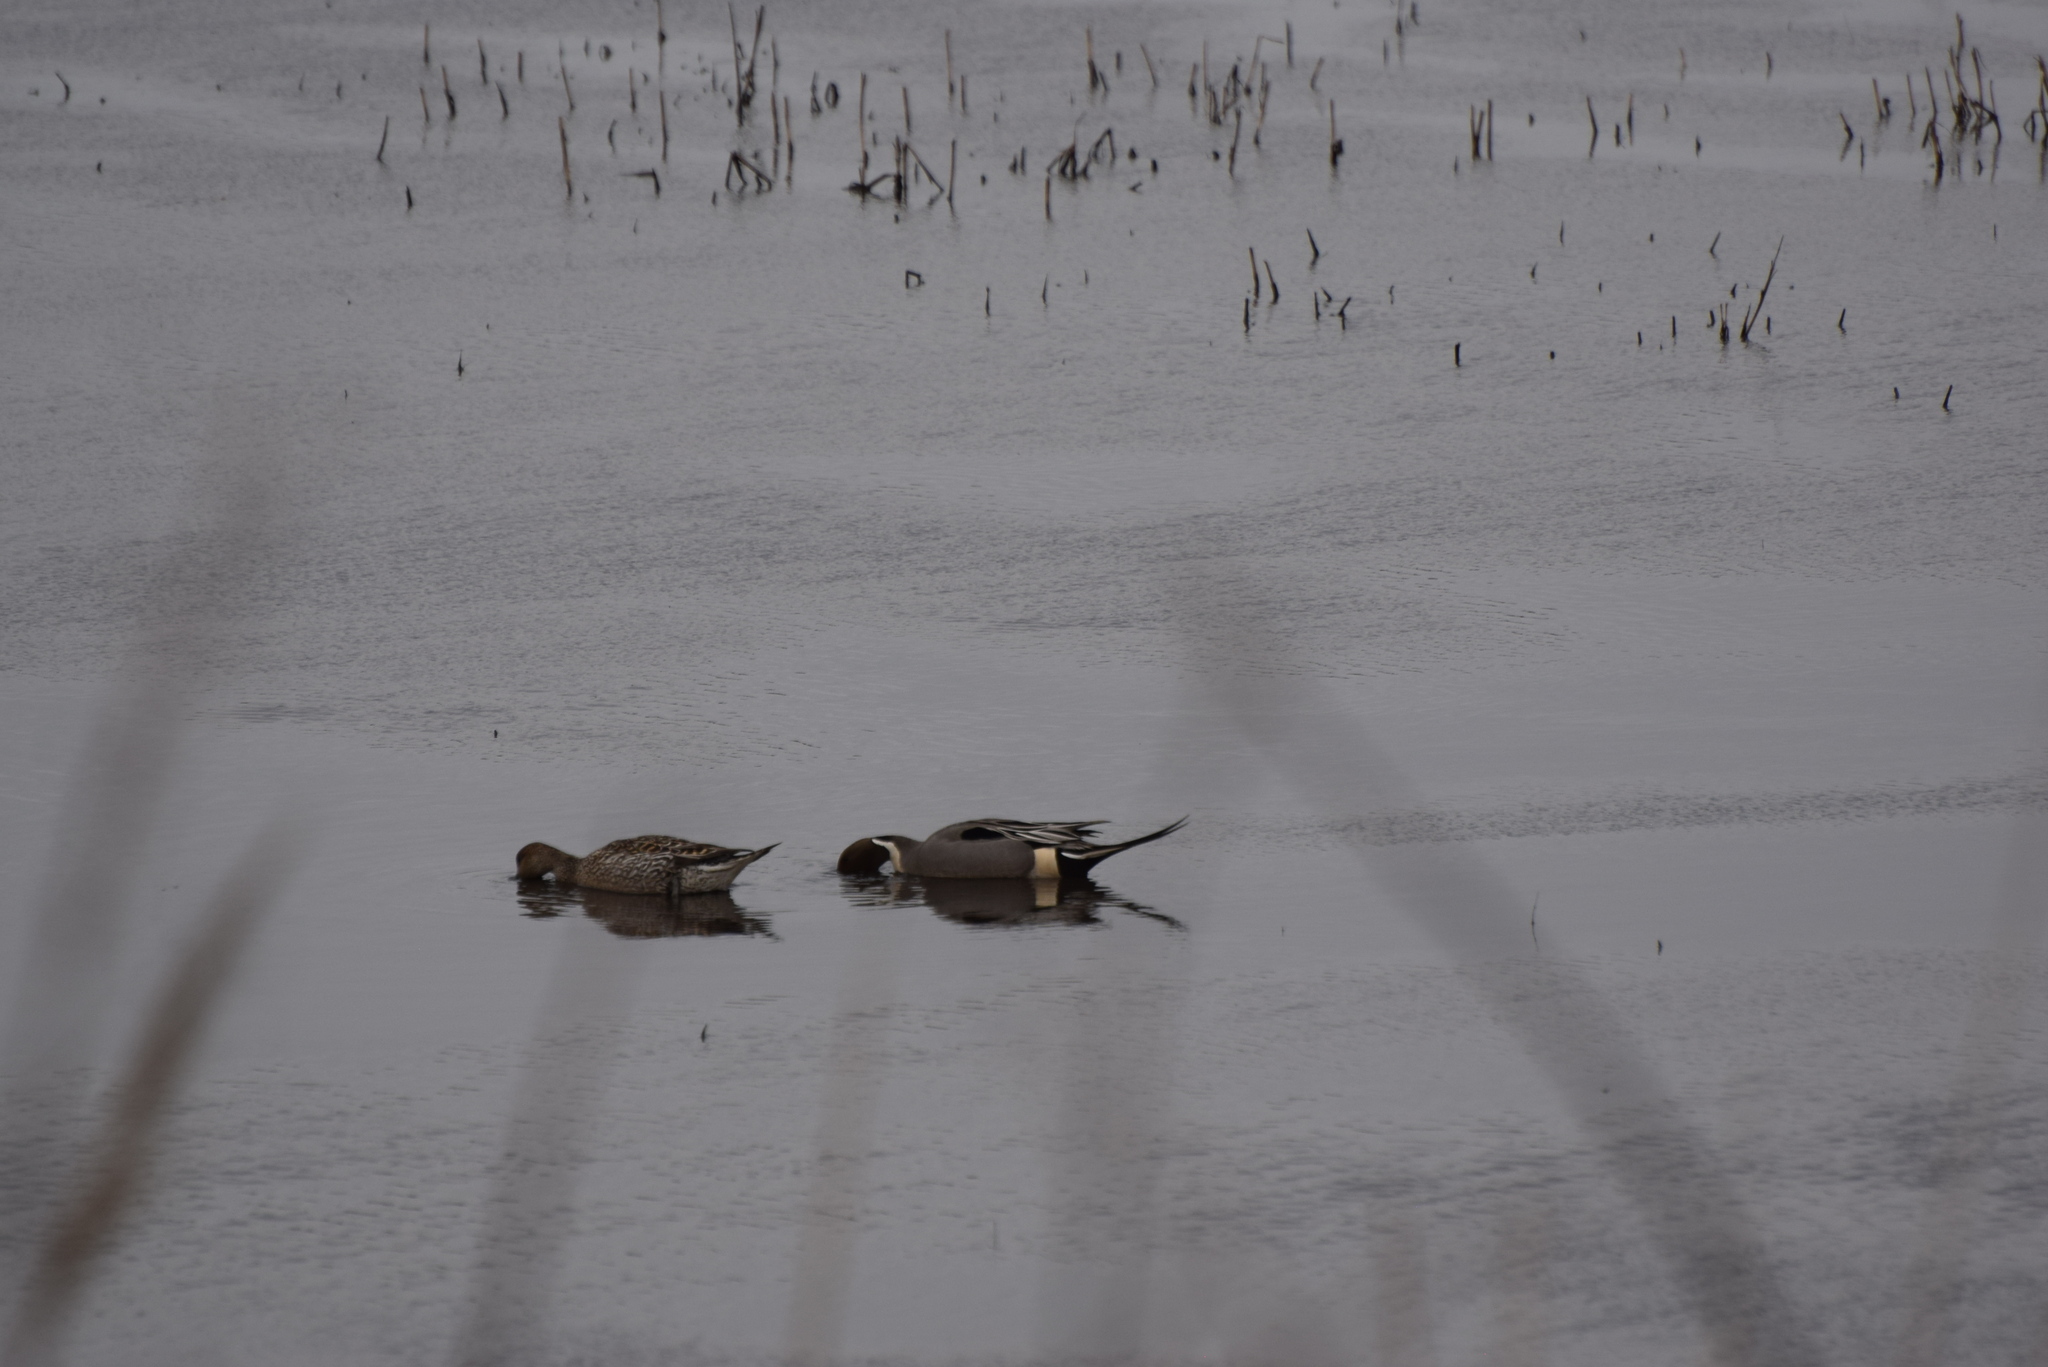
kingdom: Animalia
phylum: Chordata
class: Aves
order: Anseriformes
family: Anatidae
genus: Anas
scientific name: Anas acuta
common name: Northern pintail
